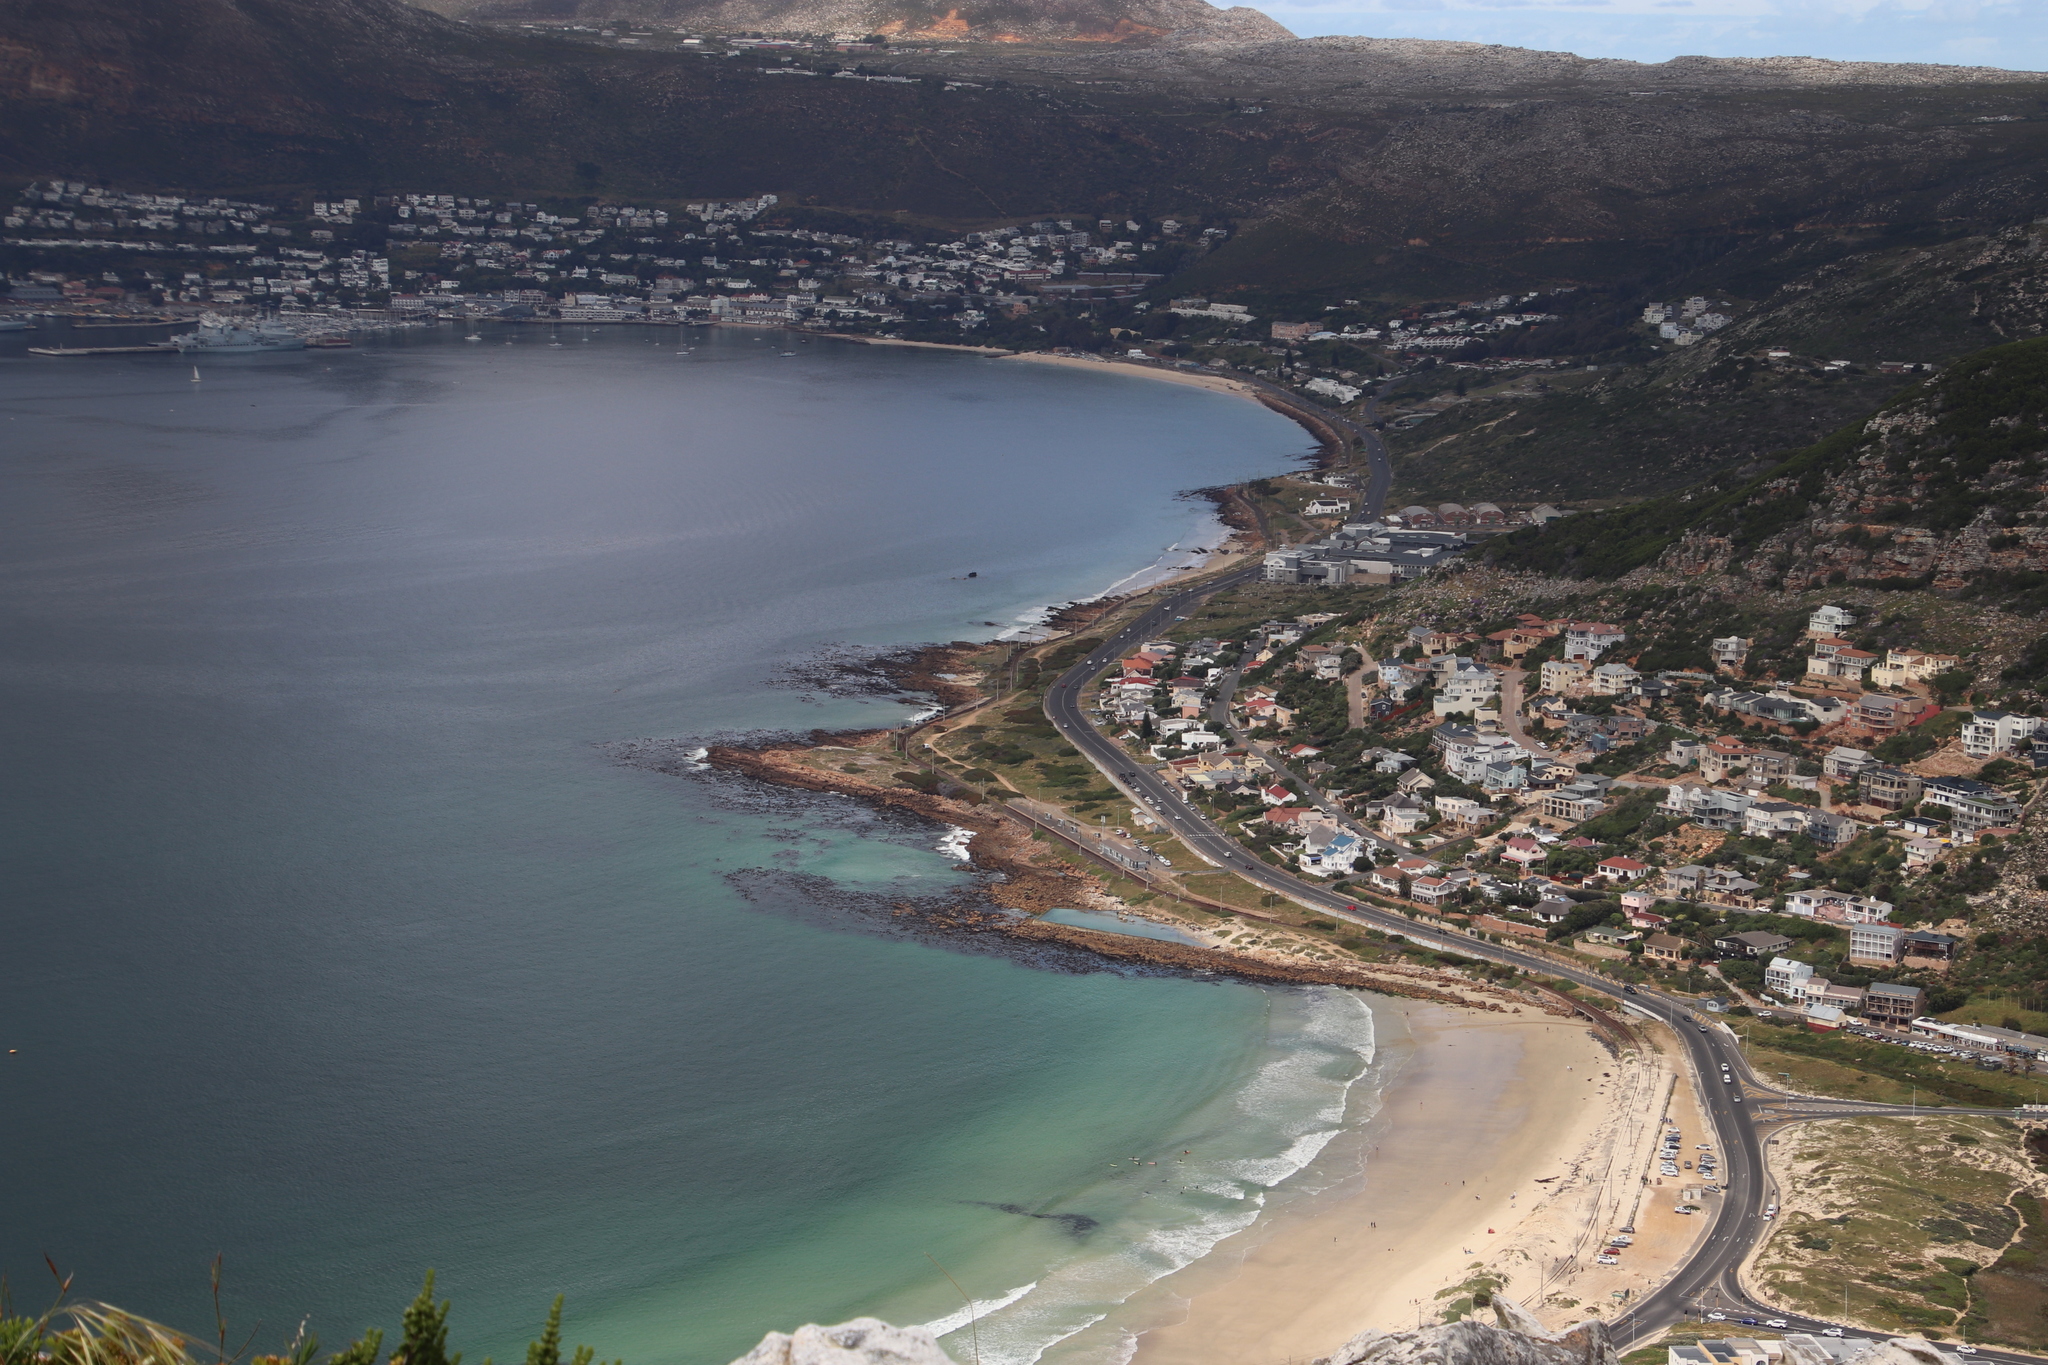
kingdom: Chromista
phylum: Ochrophyta
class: Phaeophyceae
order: Laminariales
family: Lessoniaceae
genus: Ecklonia
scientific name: Ecklonia
